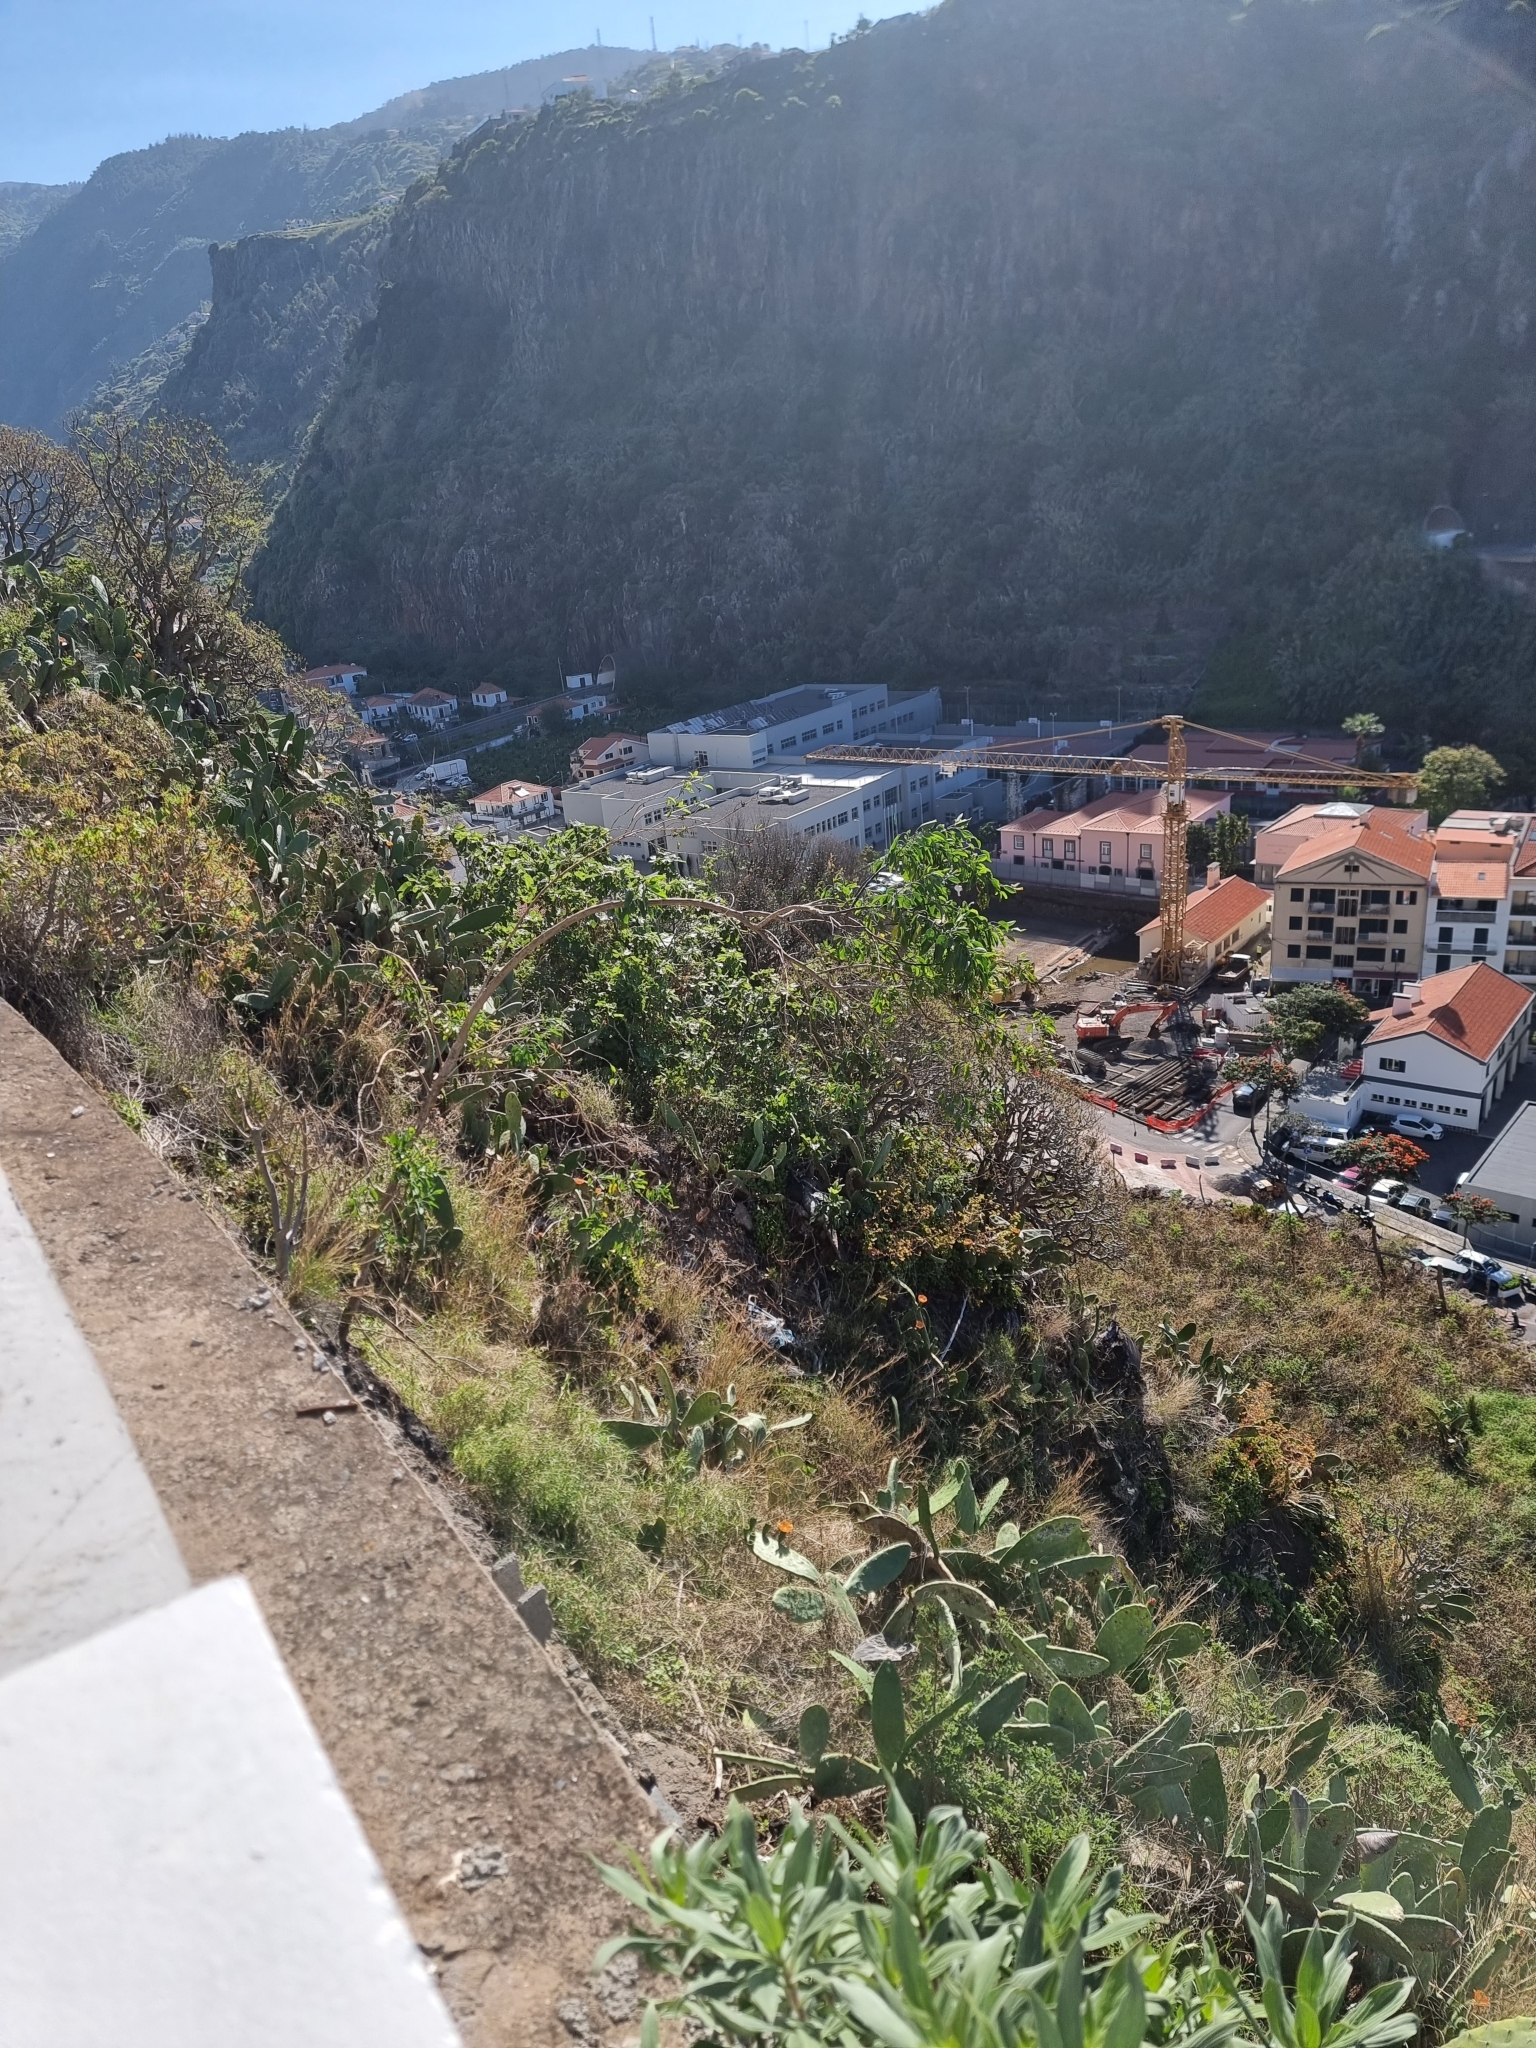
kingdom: Plantae
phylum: Tracheophyta
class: Magnoliopsida
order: Solanales
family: Solanaceae
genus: Nicotiana
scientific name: Nicotiana glauca
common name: Tree tobacco
